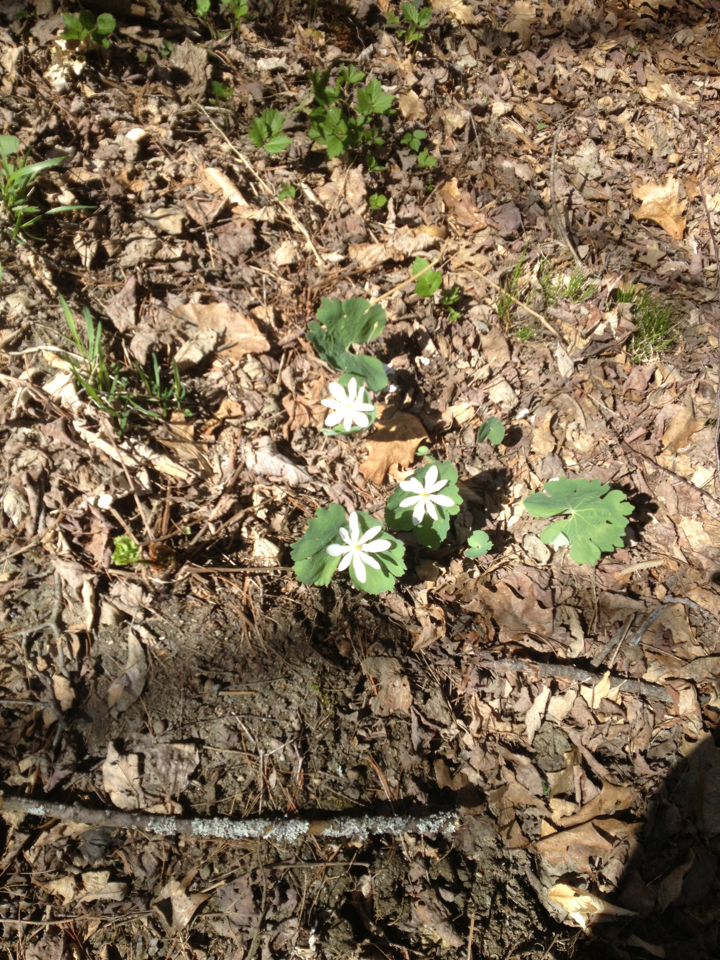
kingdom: Plantae
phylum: Tracheophyta
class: Magnoliopsida
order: Ranunculales
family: Papaveraceae
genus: Sanguinaria
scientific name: Sanguinaria canadensis
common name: Bloodroot
